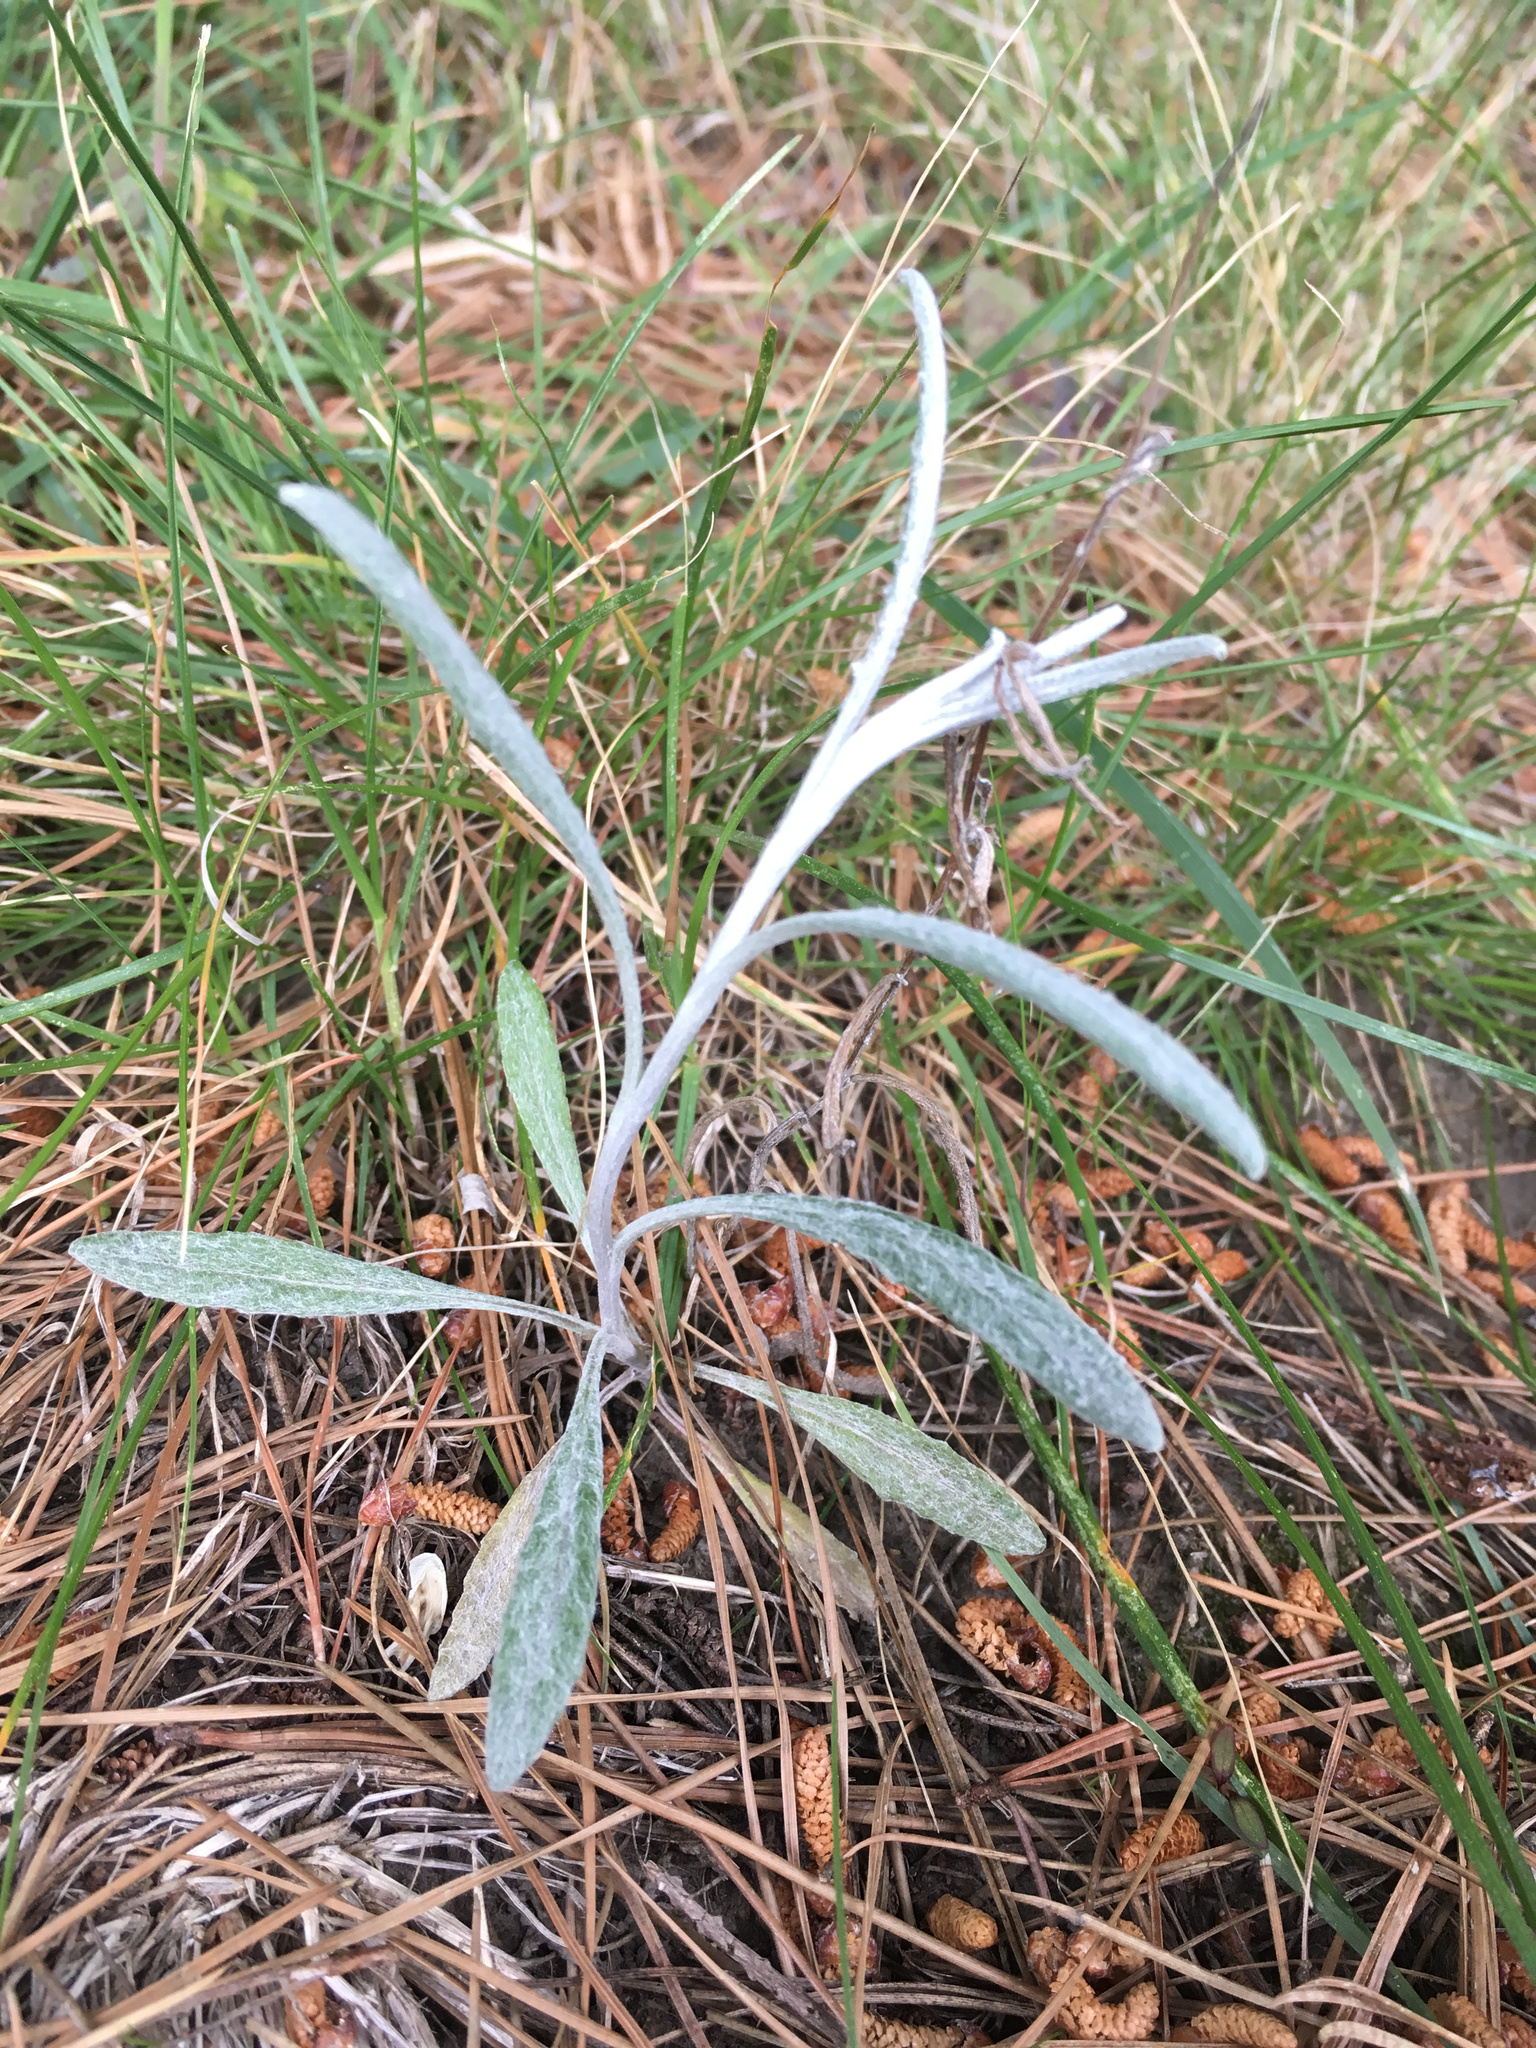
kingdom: Plantae
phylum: Tracheophyta
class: Magnoliopsida
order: Asterales
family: Asteraceae
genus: Senecio
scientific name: Senecio quadridentatus
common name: Cotton fireweed
